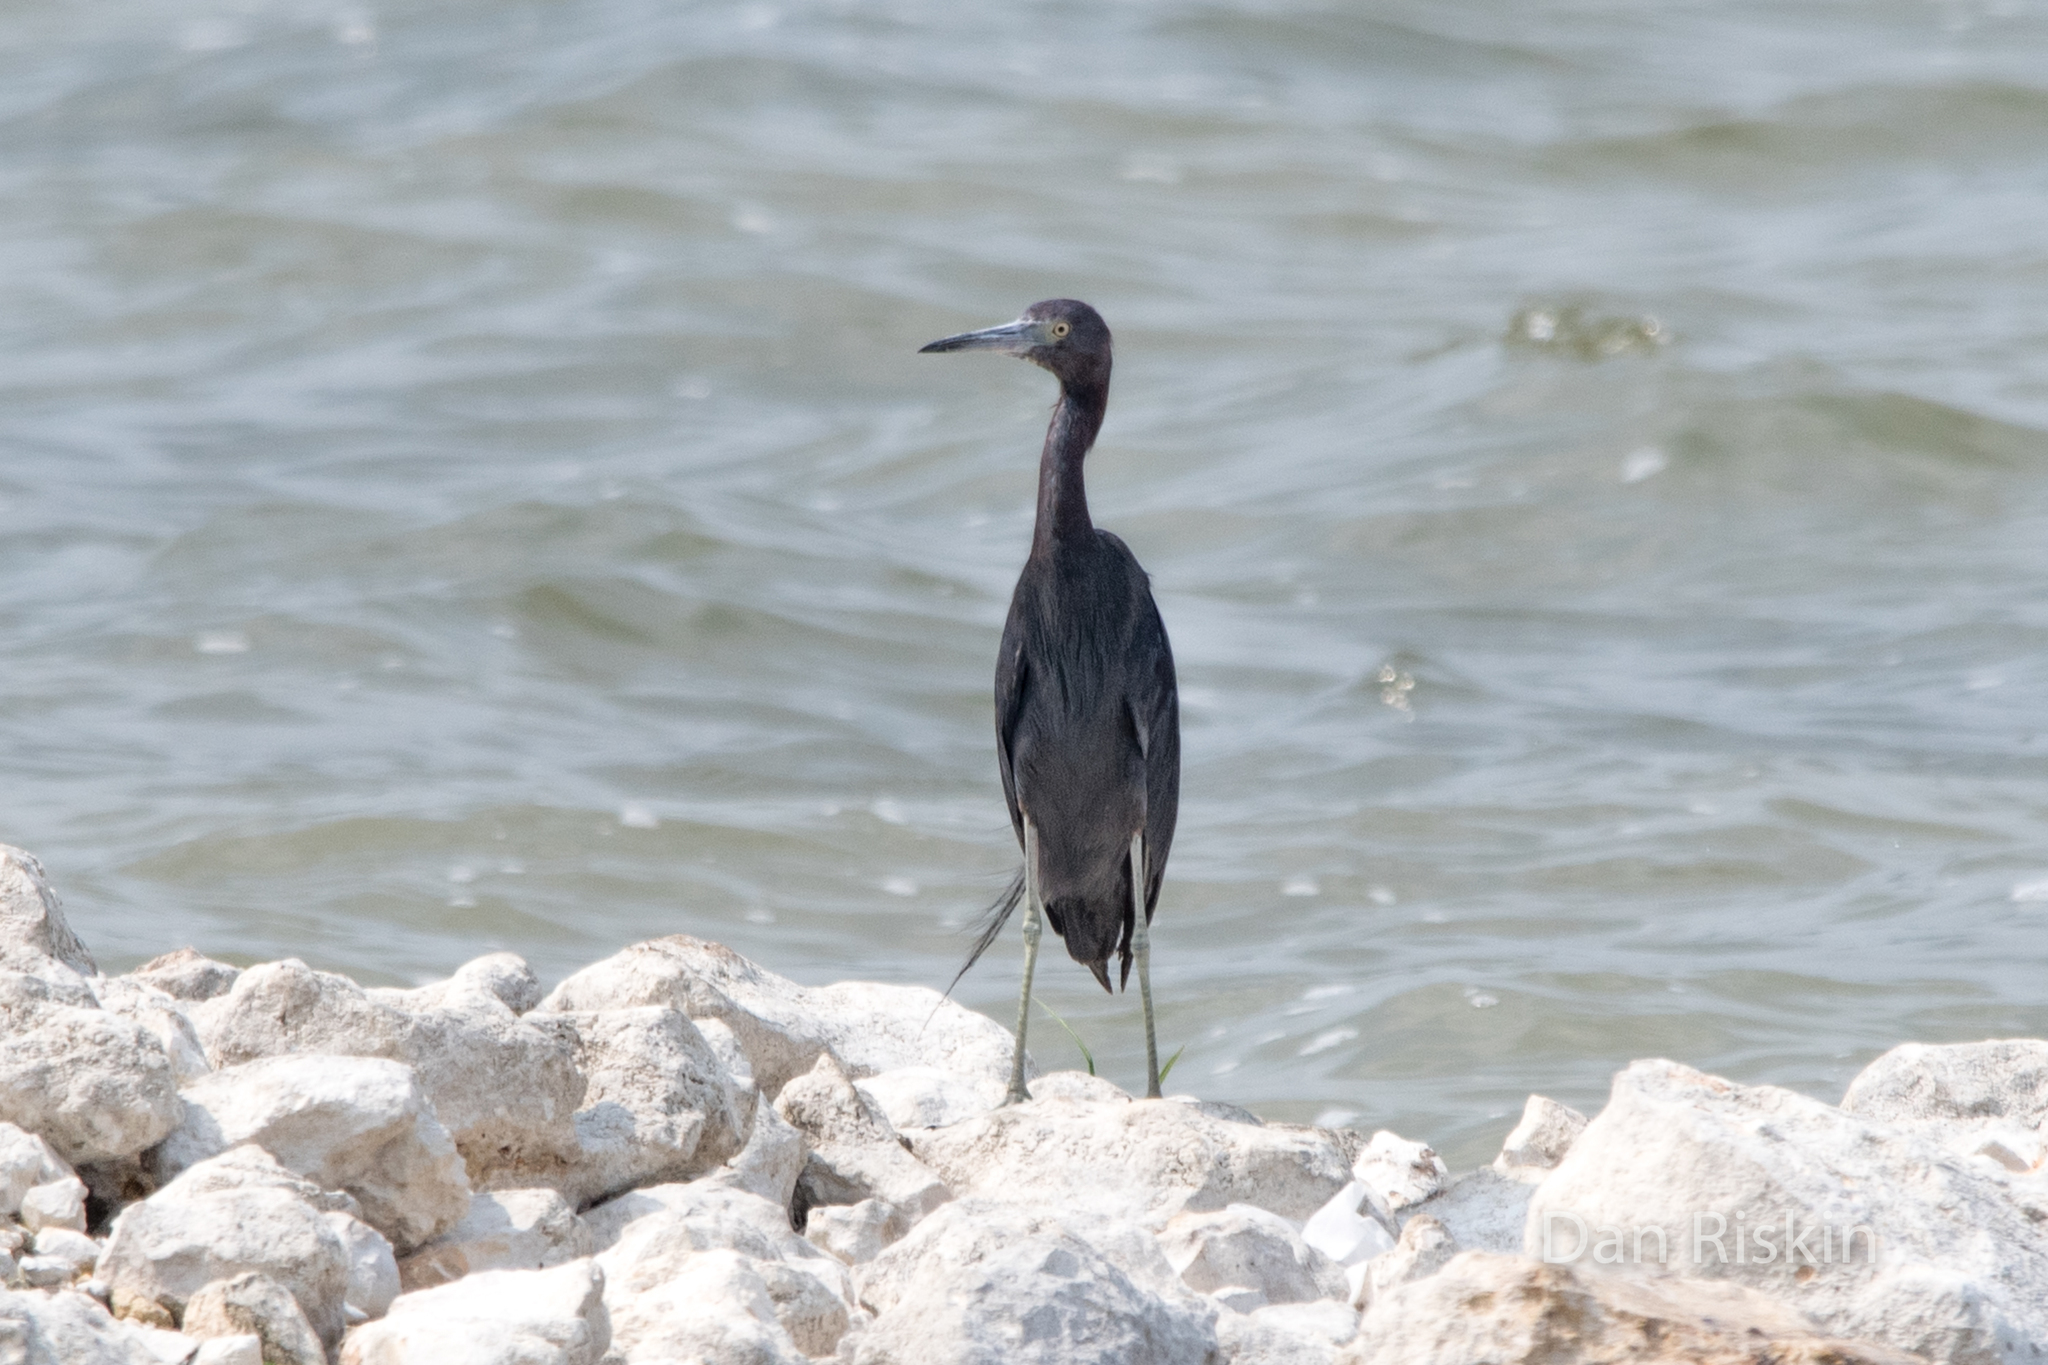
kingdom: Animalia
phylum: Chordata
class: Aves
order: Pelecaniformes
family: Ardeidae
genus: Egretta
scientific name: Egretta caerulea
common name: Little blue heron
